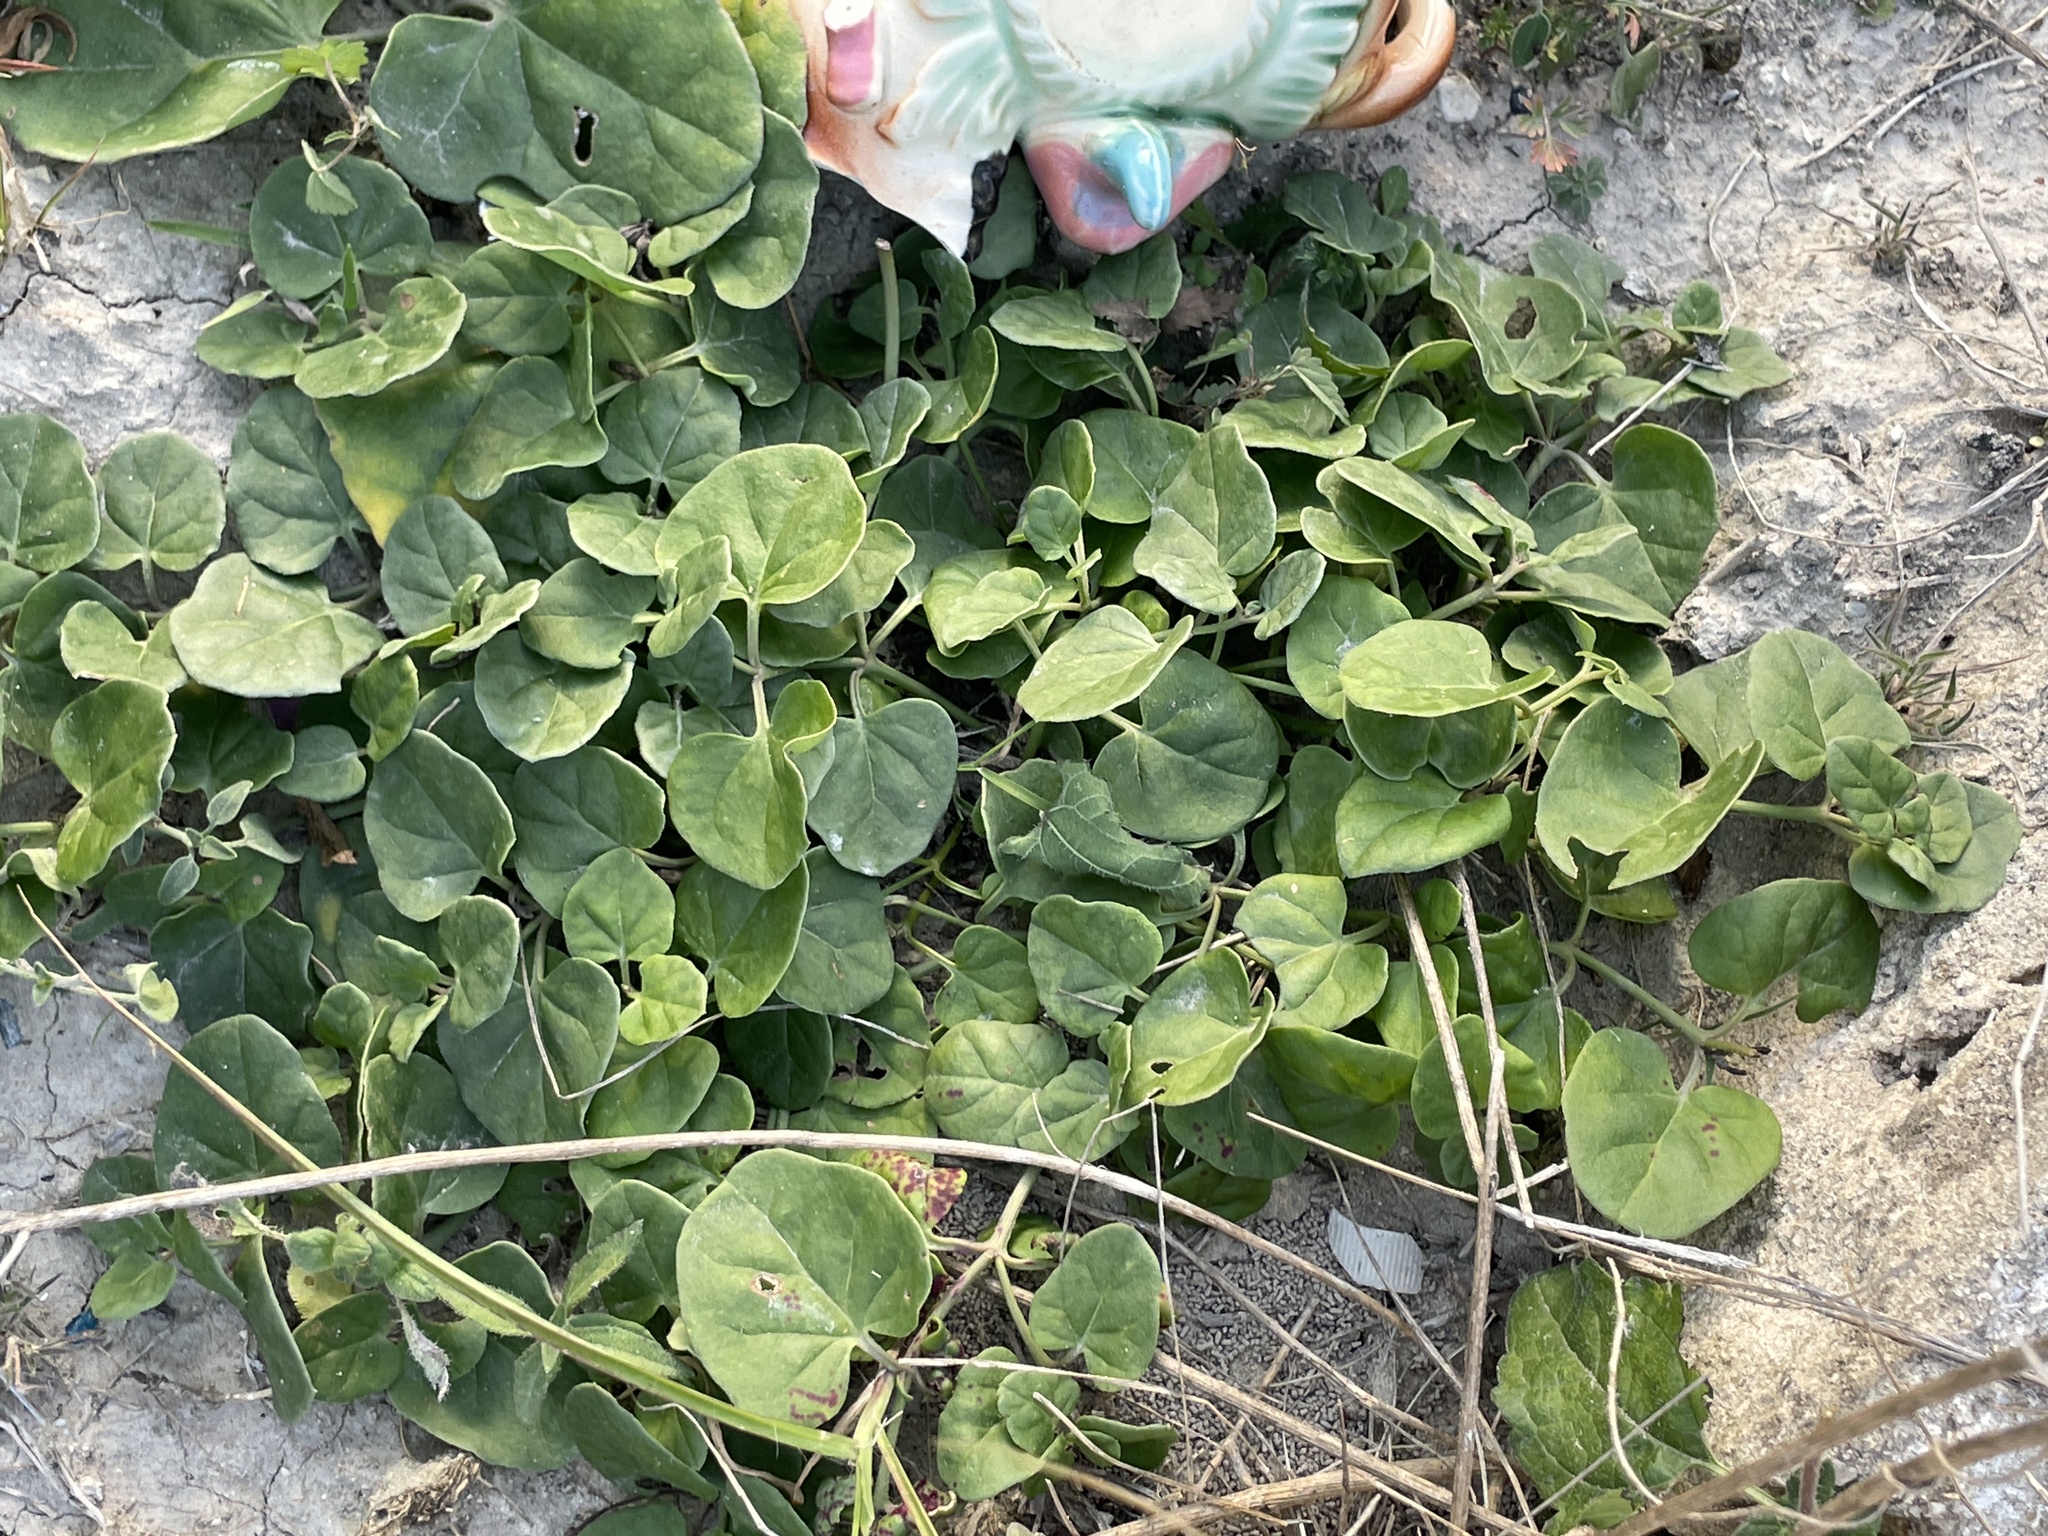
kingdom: Plantae
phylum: Tracheophyta
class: Magnoliopsida
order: Caryophyllales
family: Nyctaginaceae
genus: Acleisanthes
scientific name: Acleisanthes obtusa
